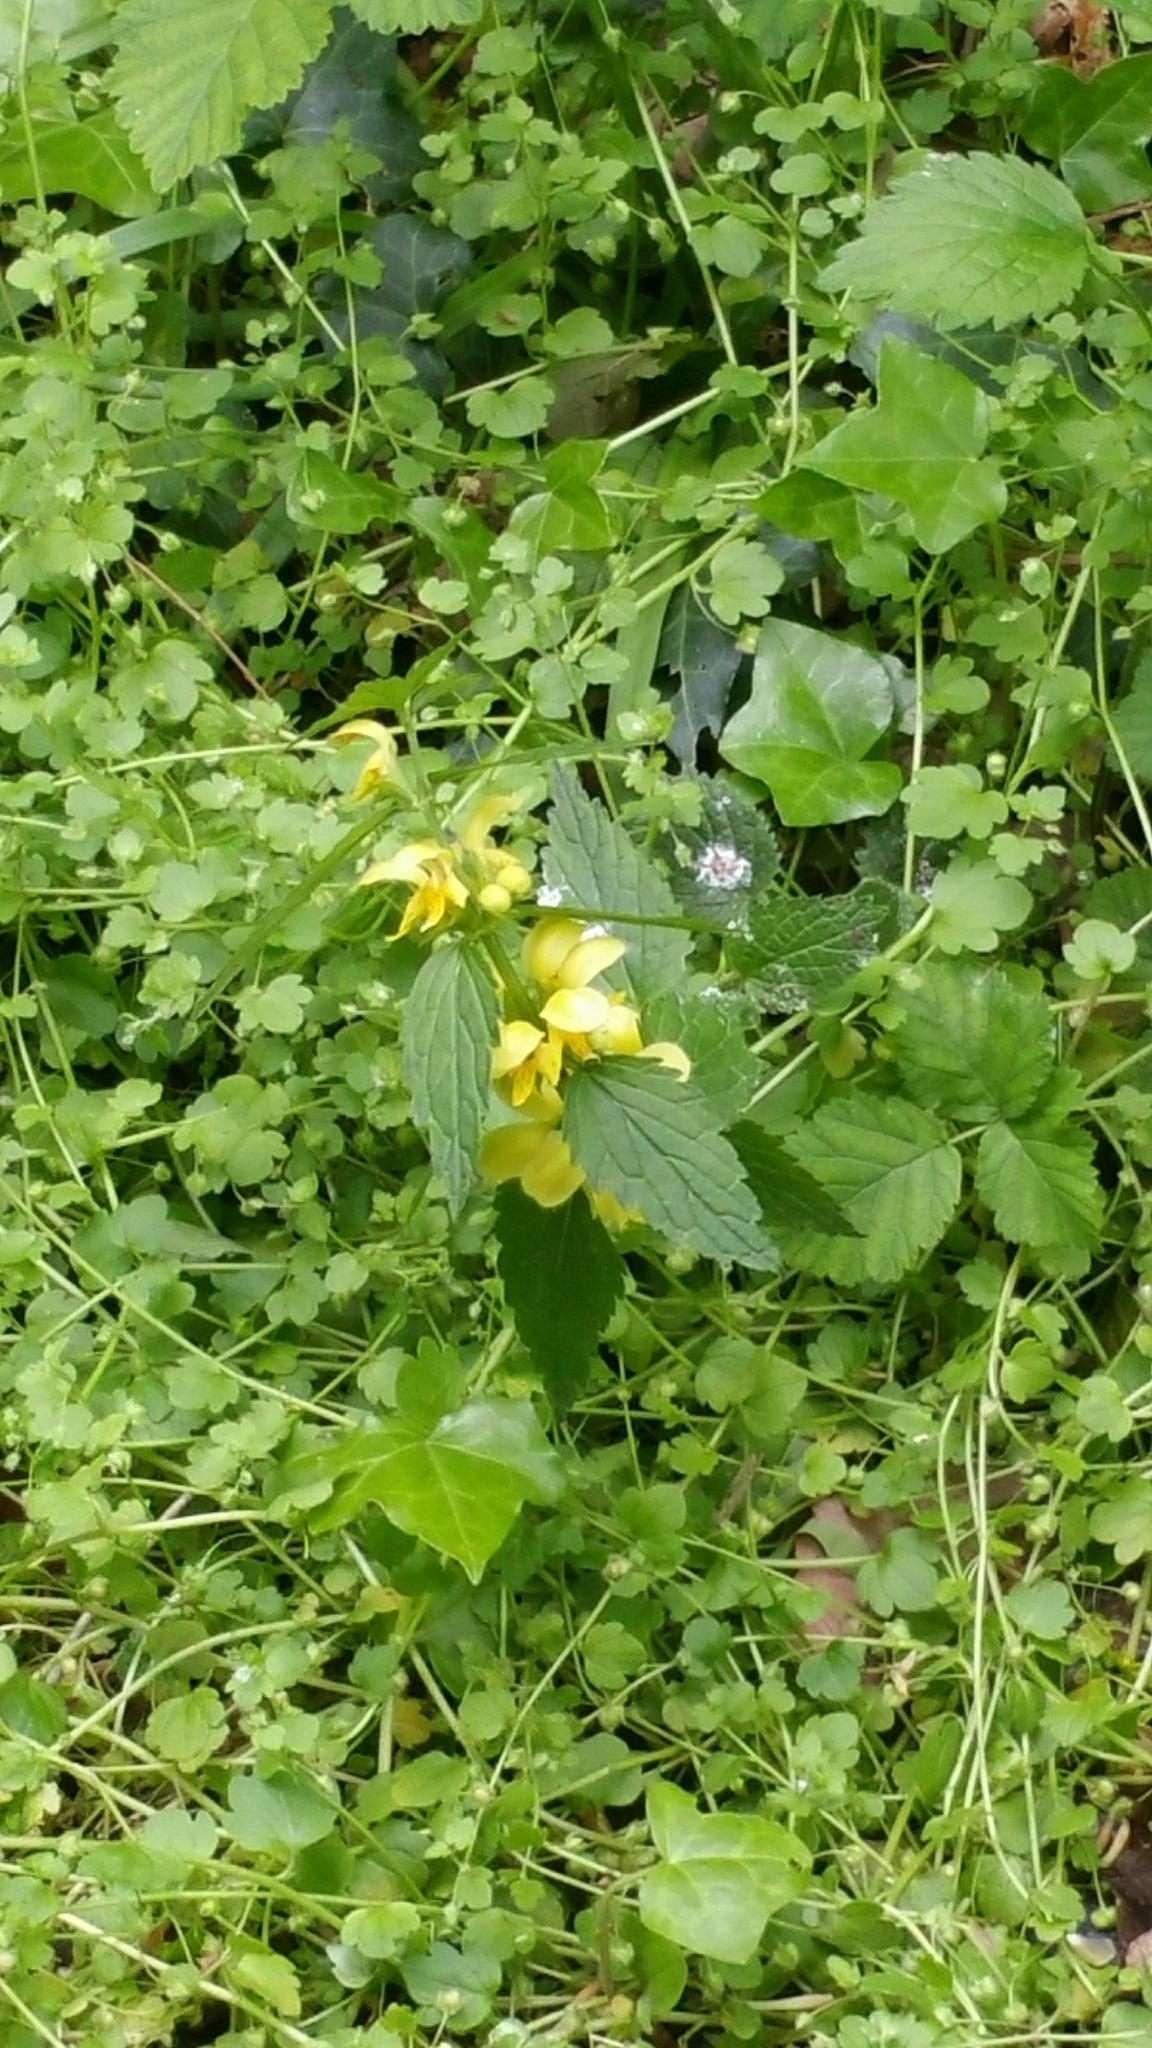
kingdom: Plantae
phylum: Tracheophyta
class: Magnoliopsida
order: Lamiales
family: Lamiaceae
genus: Lamium
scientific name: Lamium galeobdolon
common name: Yellow archangel
